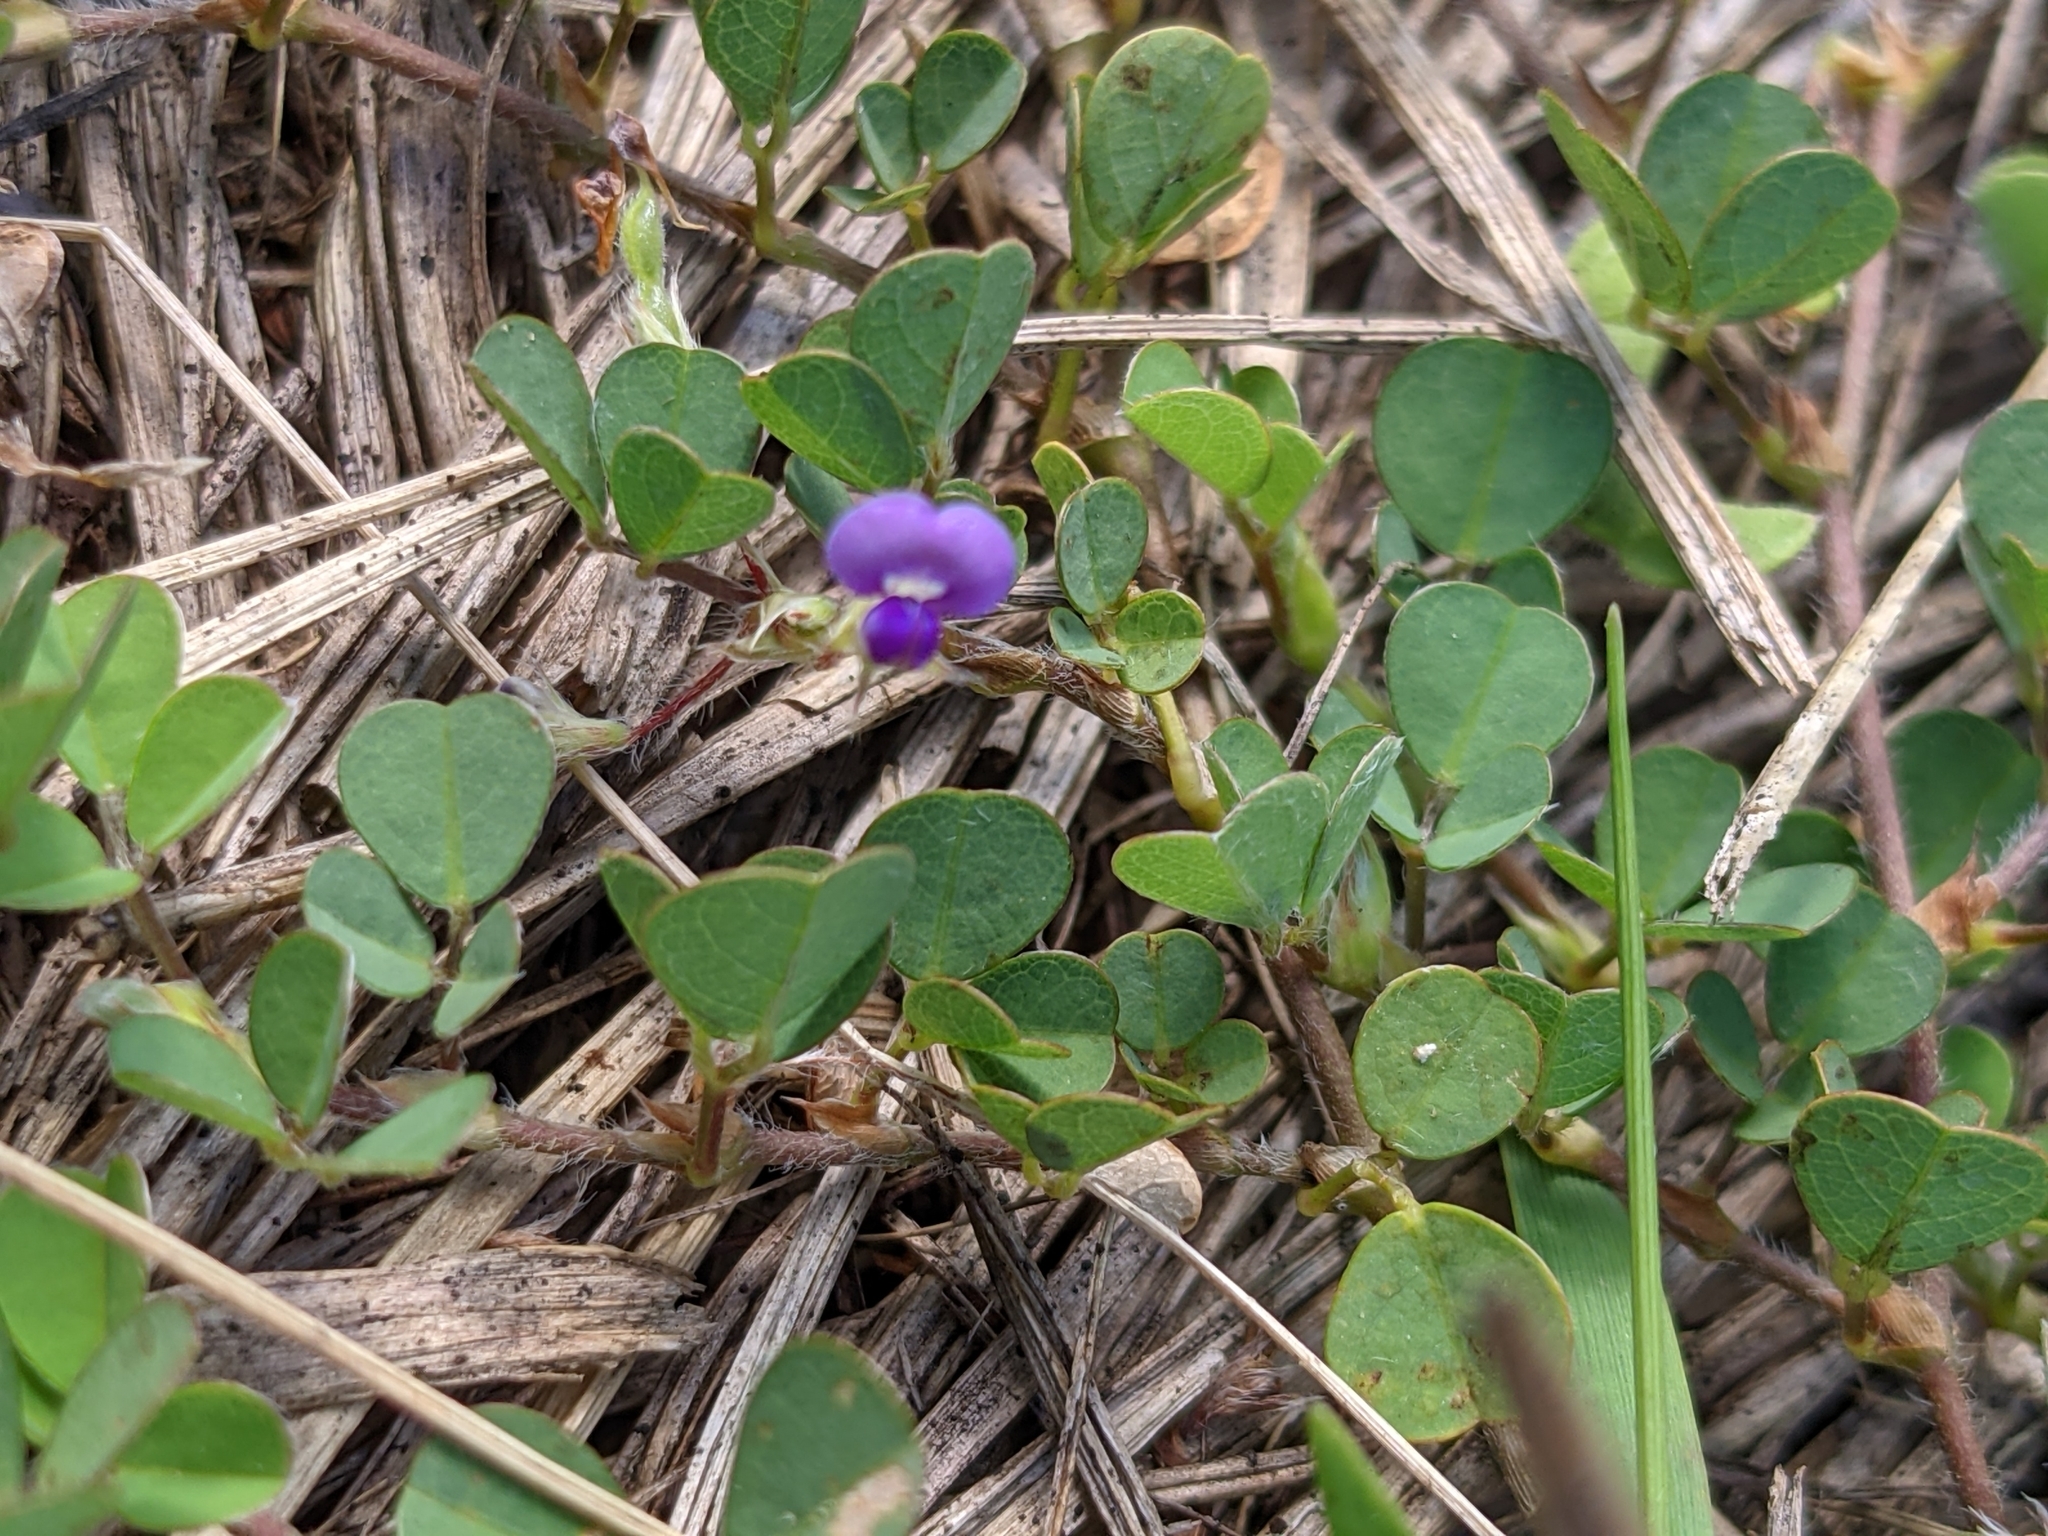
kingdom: Plantae
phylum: Tracheophyta
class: Magnoliopsida
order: Fabales
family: Fabaceae
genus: Grona
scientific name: Grona triflora
